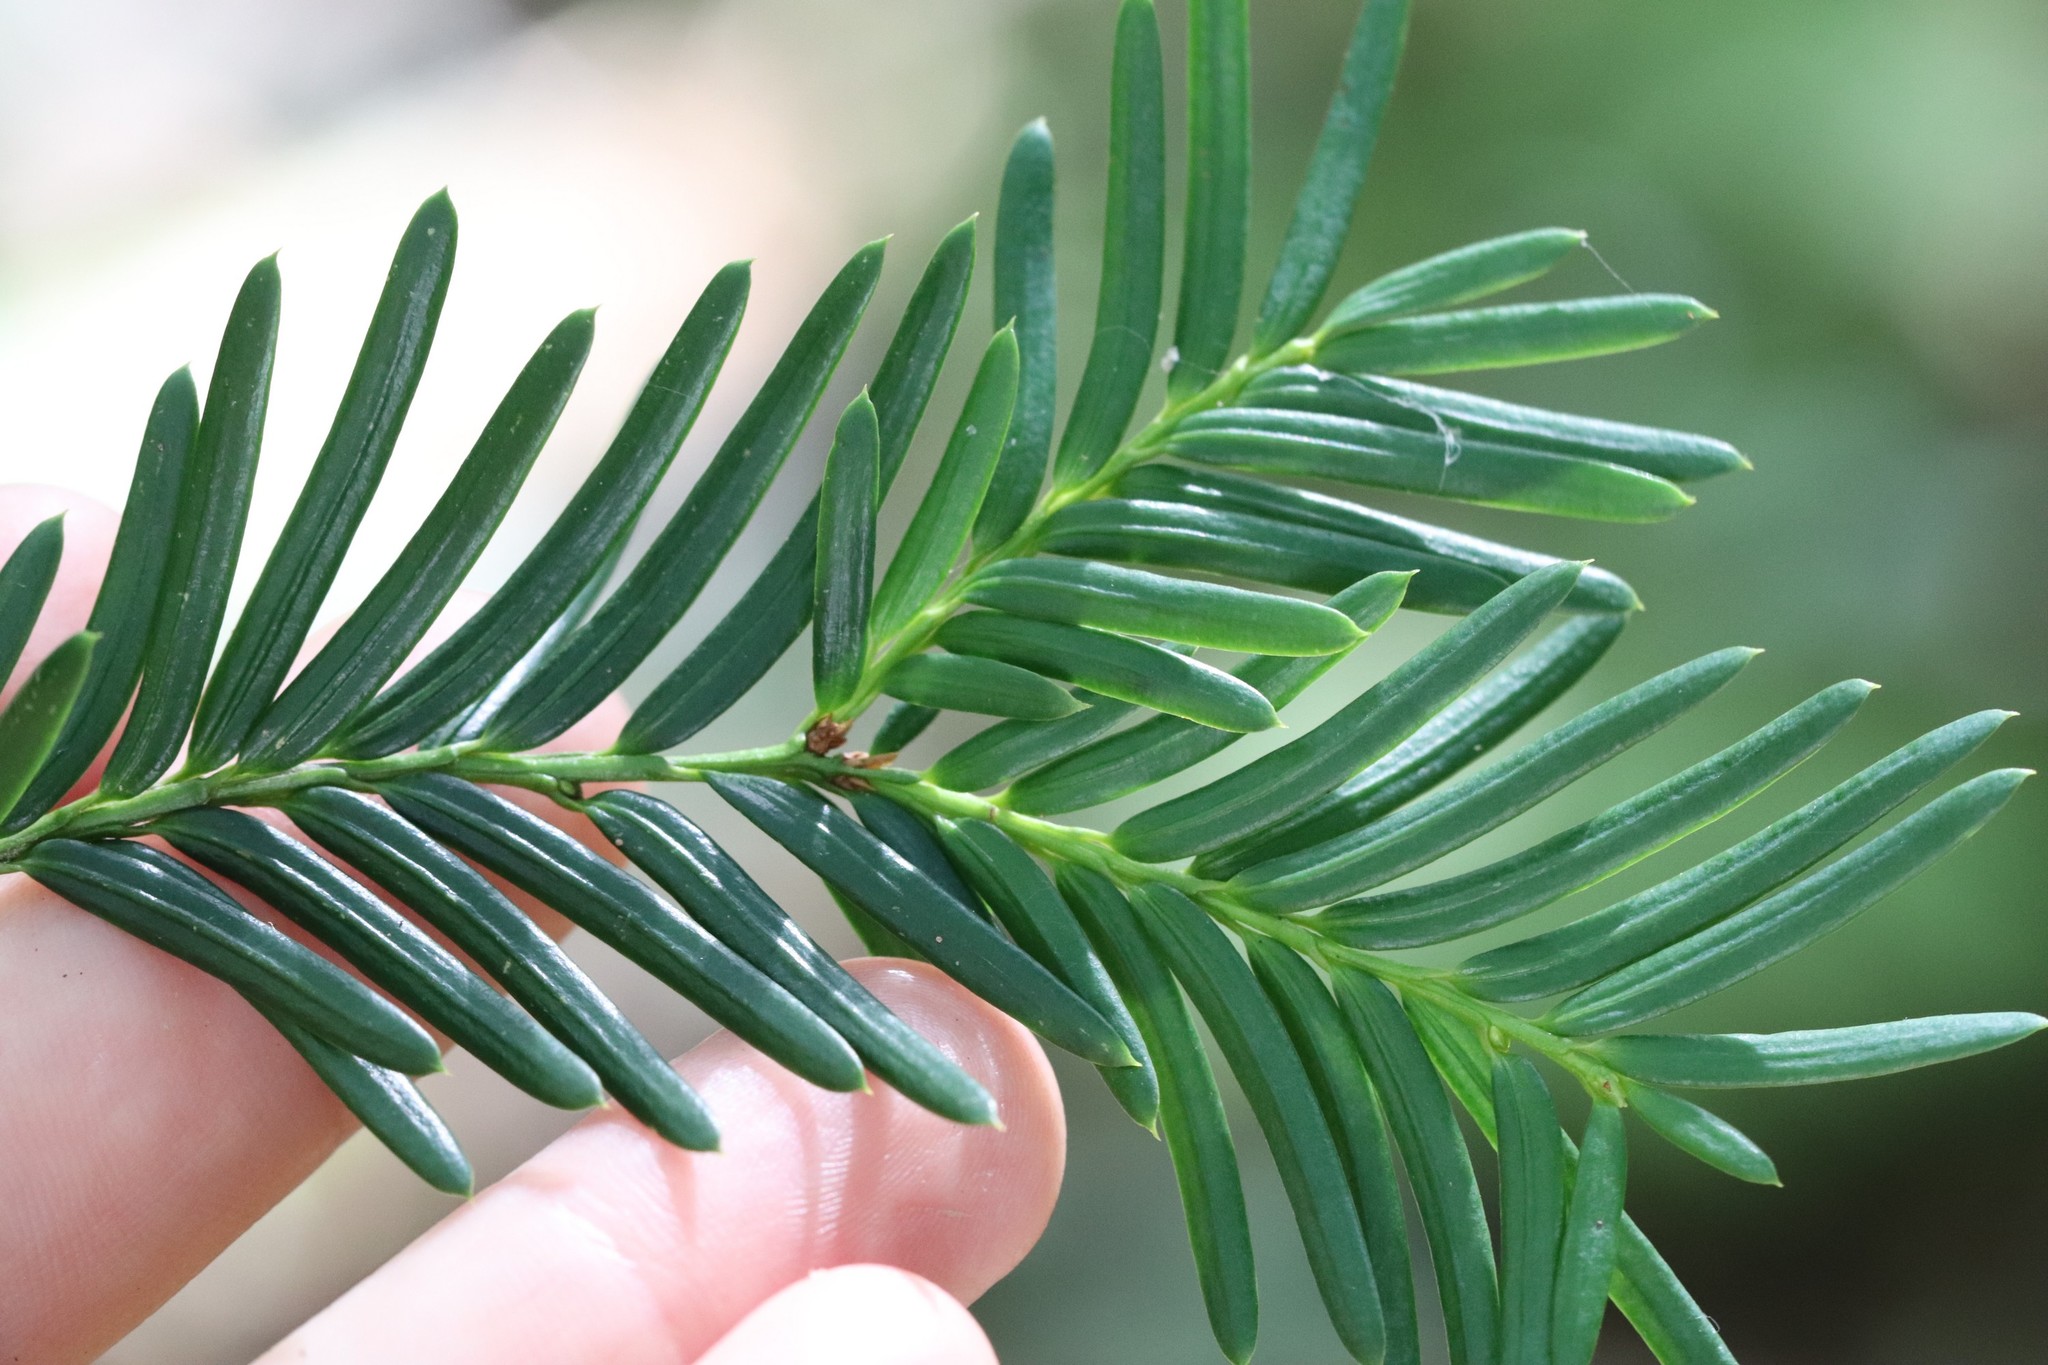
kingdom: Plantae
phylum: Tracheophyta
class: Pinopsida
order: Pinales
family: Taxaceae
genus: Taxus
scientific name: Taxus cuspidata
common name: Japanese yew
